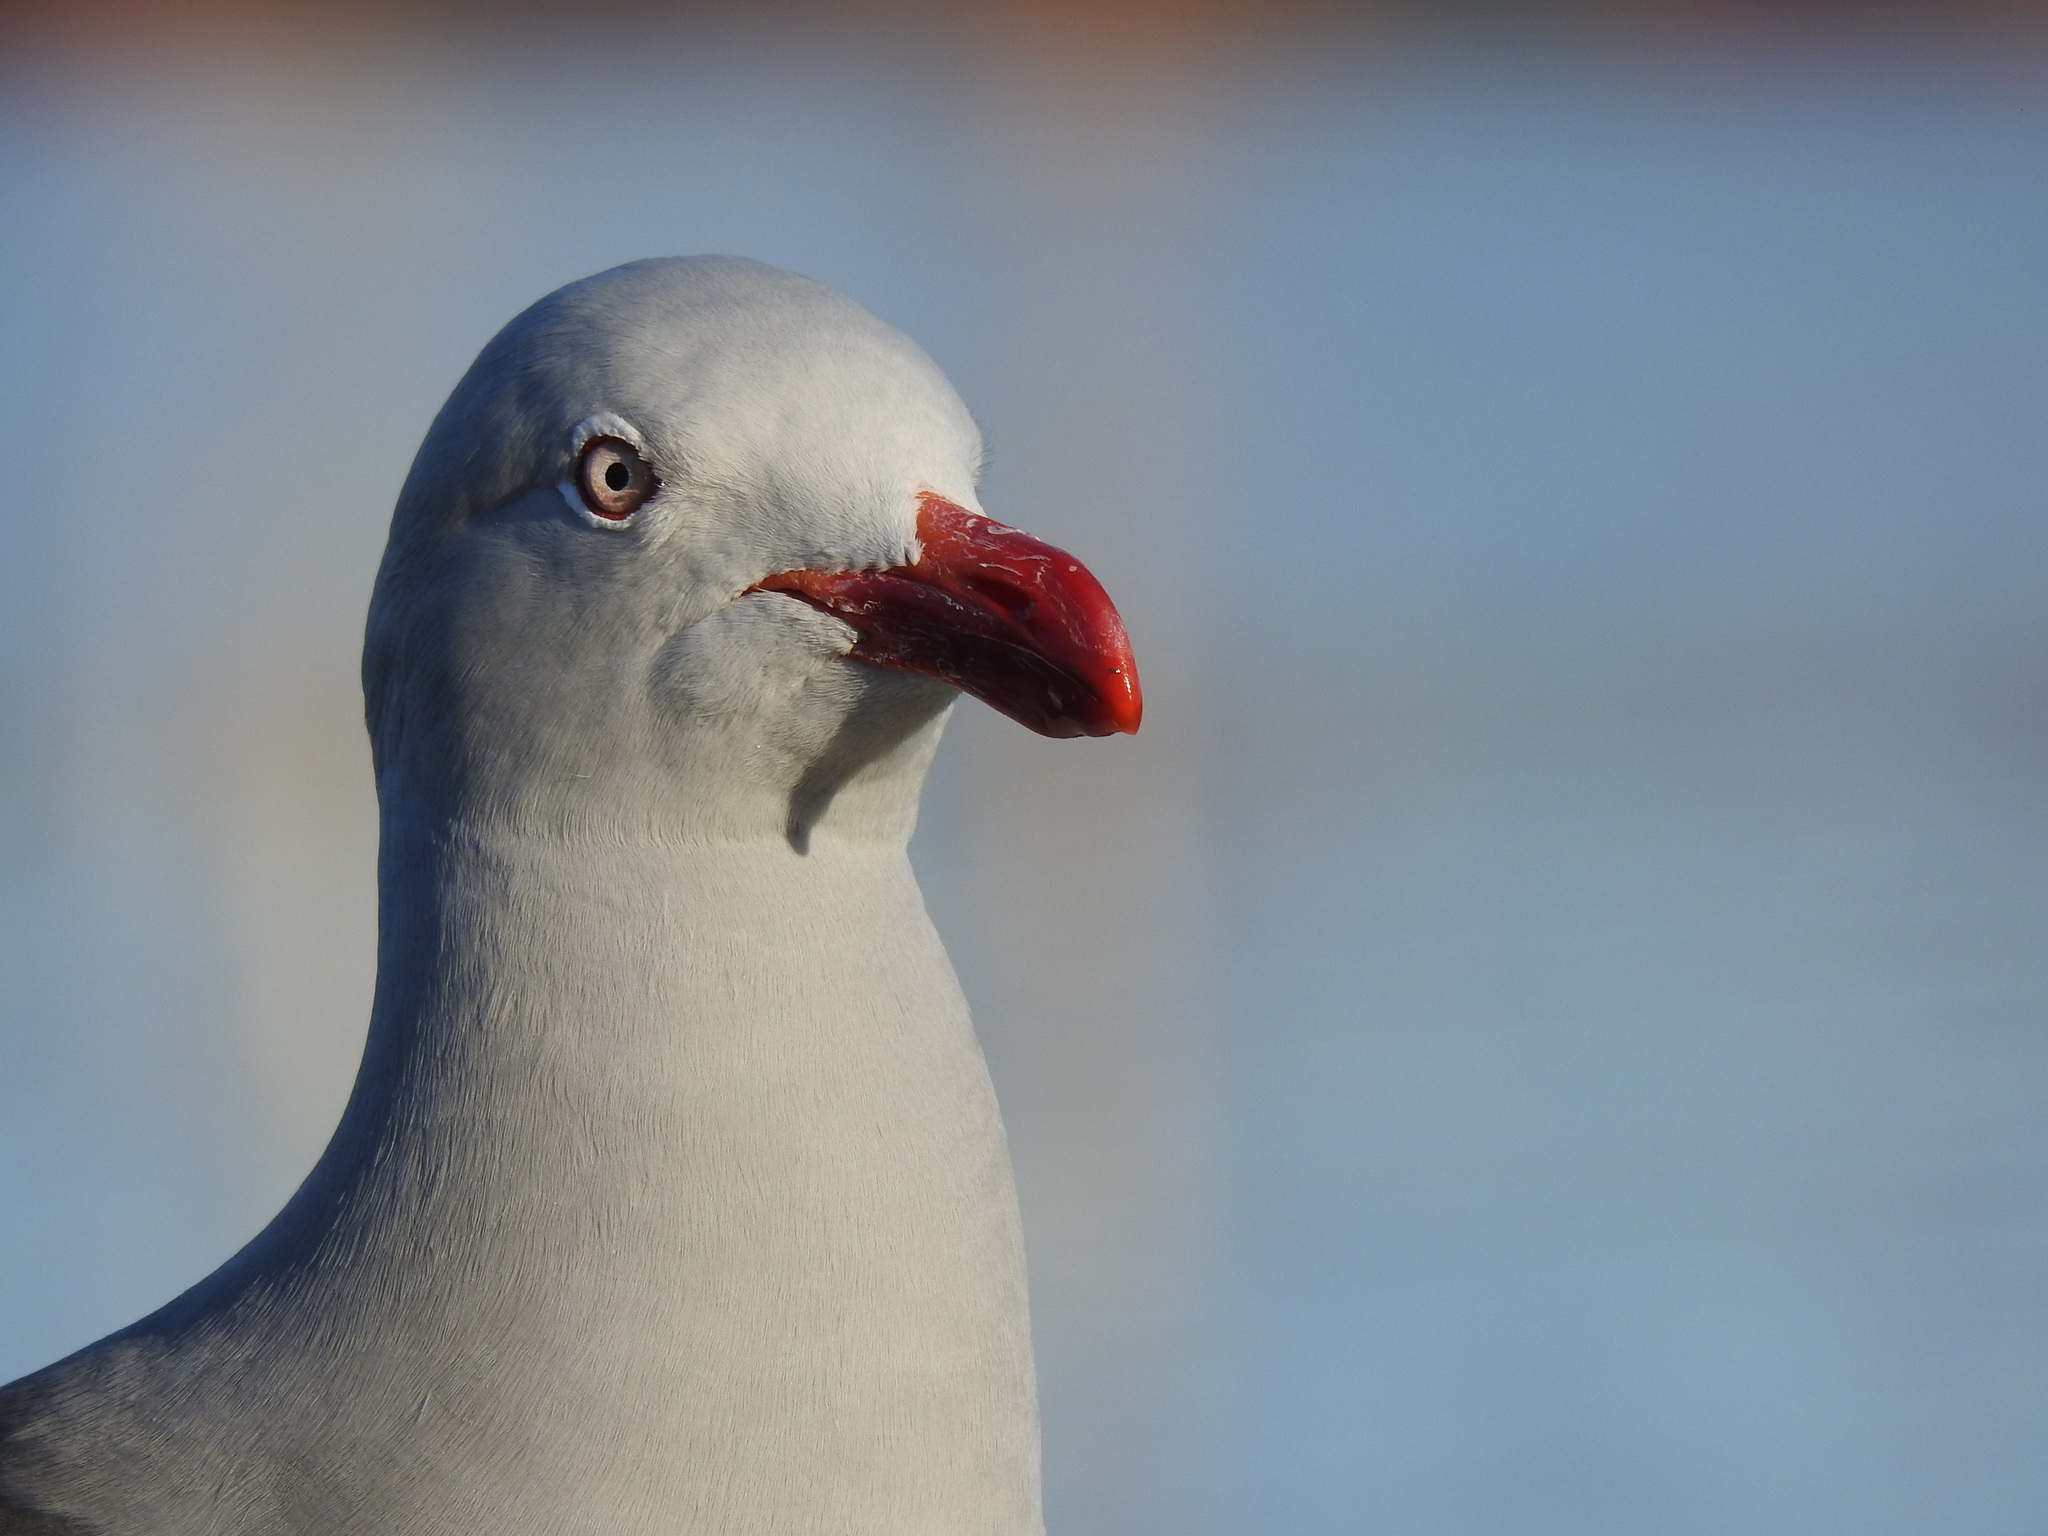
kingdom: Animalia
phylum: Chordata
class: Aves
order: Charadriiformes
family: Laridae
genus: Leucophaeus
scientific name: Leucophaeus scoresbii
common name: Dolphin gull
